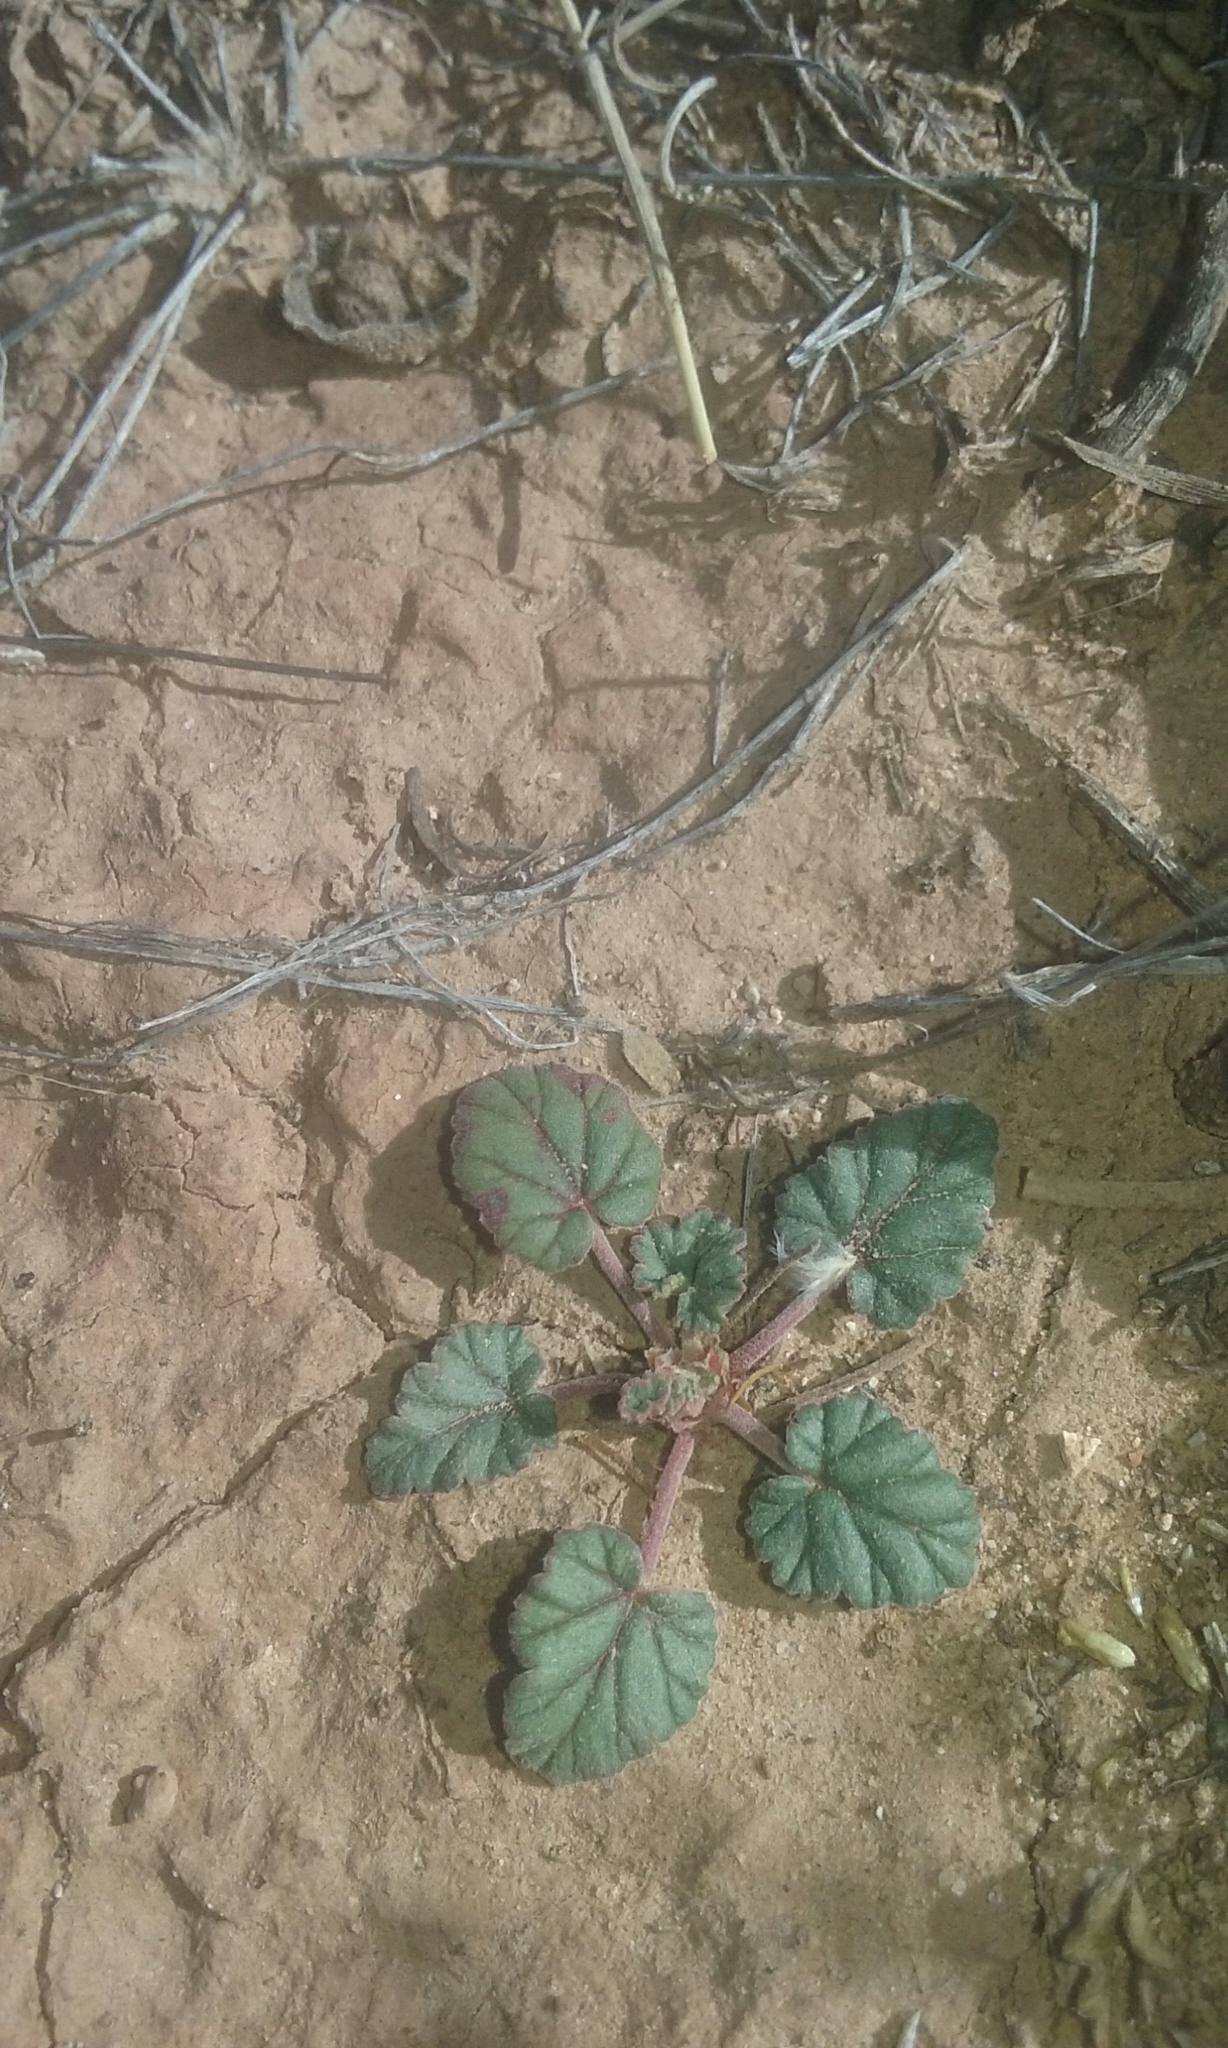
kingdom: Plantae
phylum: Tracheophyta
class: Magnoliopsida
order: Geraniales
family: Geraniaceae
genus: Erodium
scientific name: Erodium texanum
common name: Texas stork's-bill
